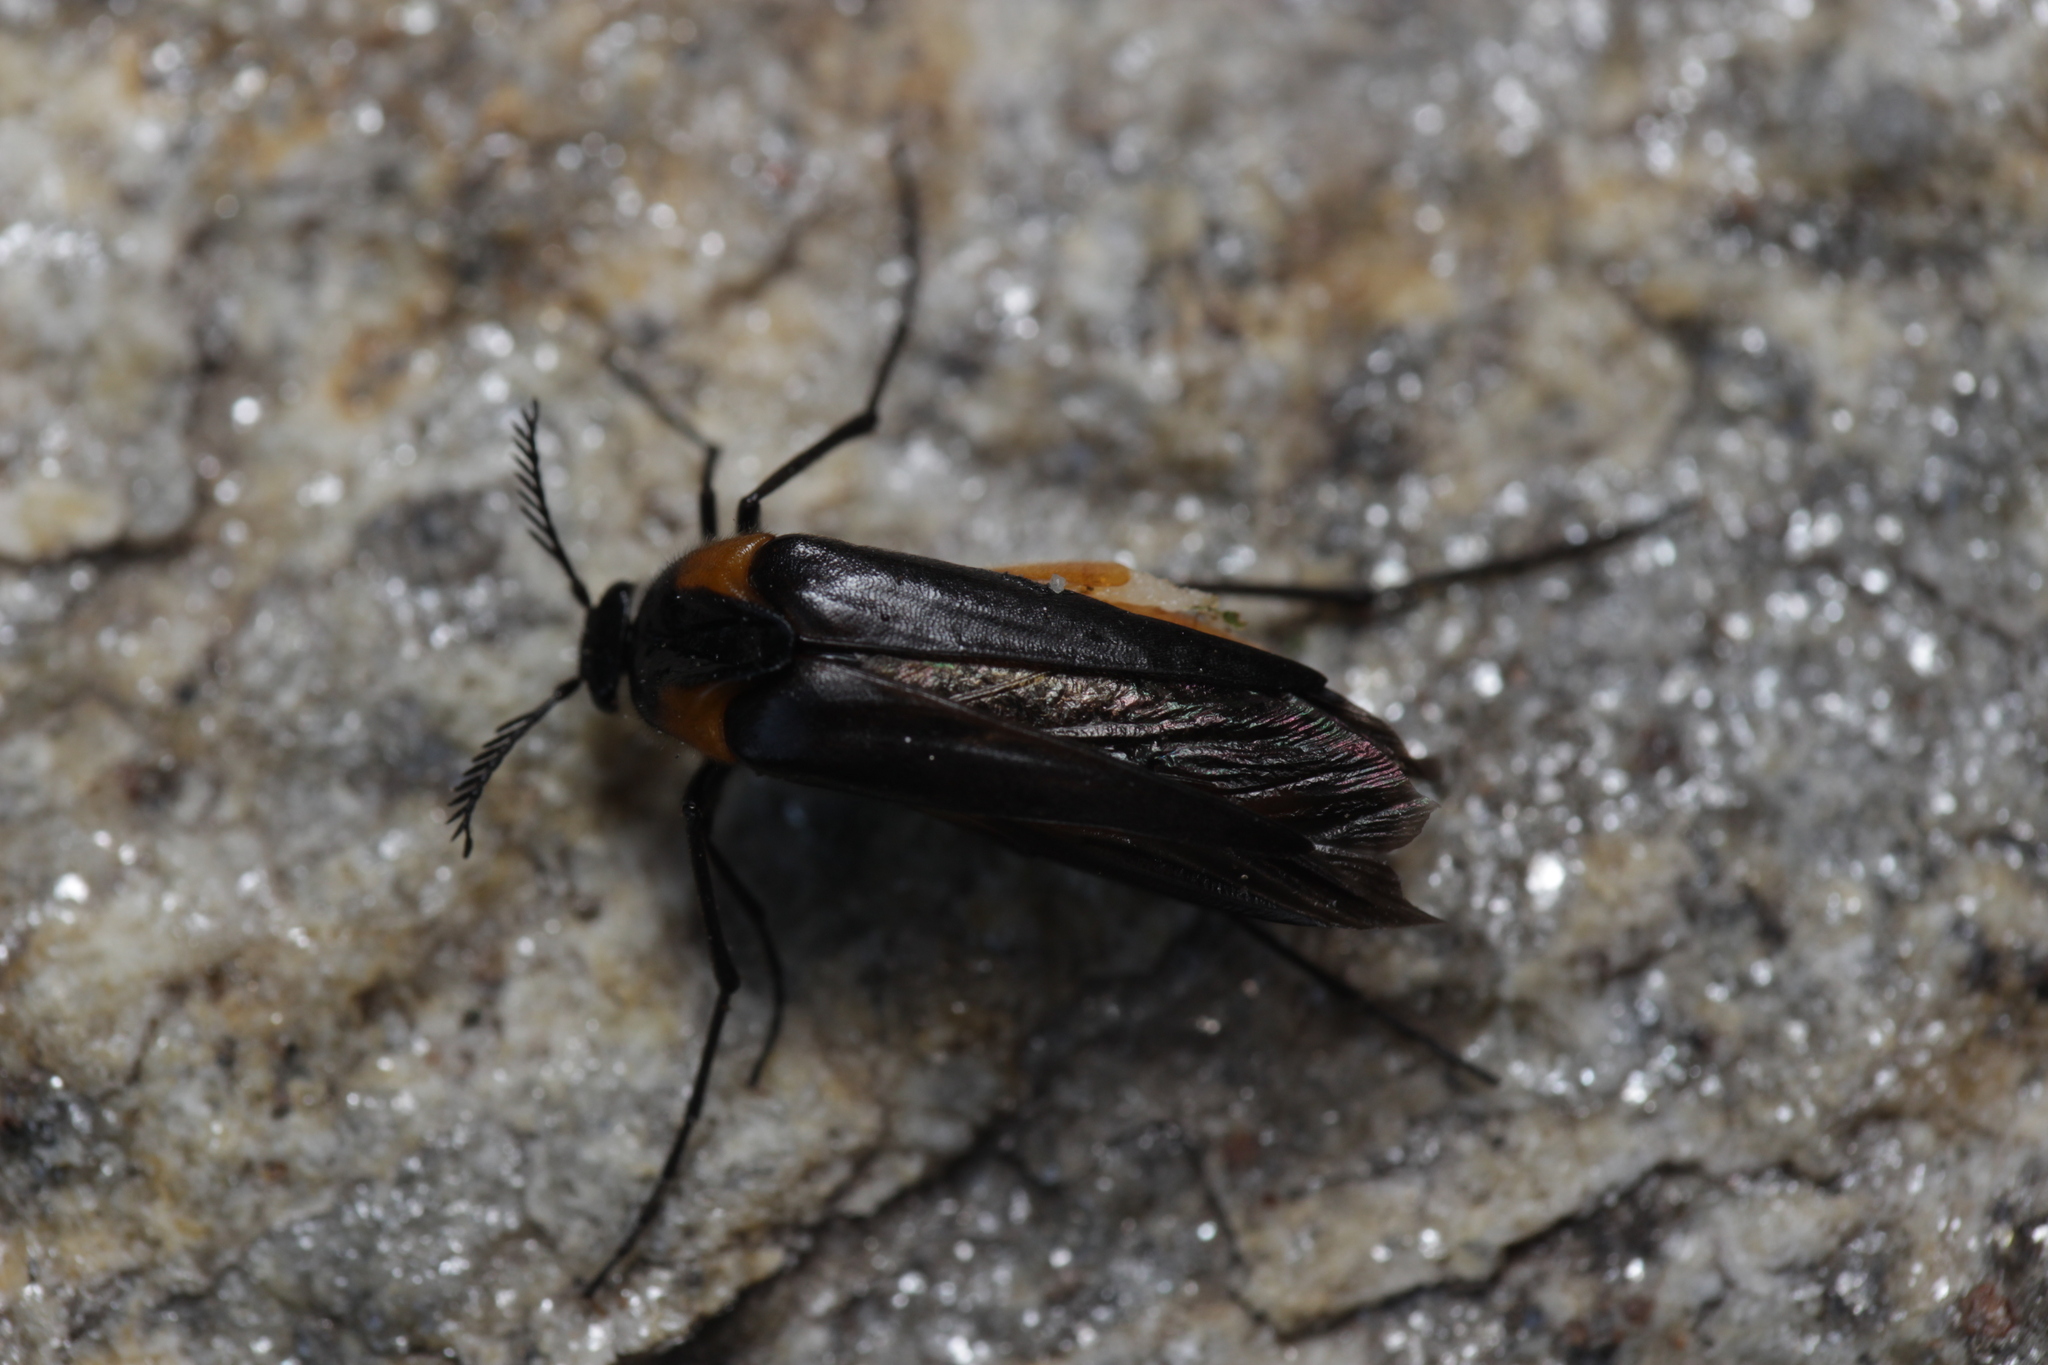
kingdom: Animalia
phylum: Arthropoda
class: Insecta
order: Coleoptera
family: Ripiphoridae
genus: Metoecus
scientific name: Metoecus paradoxus
